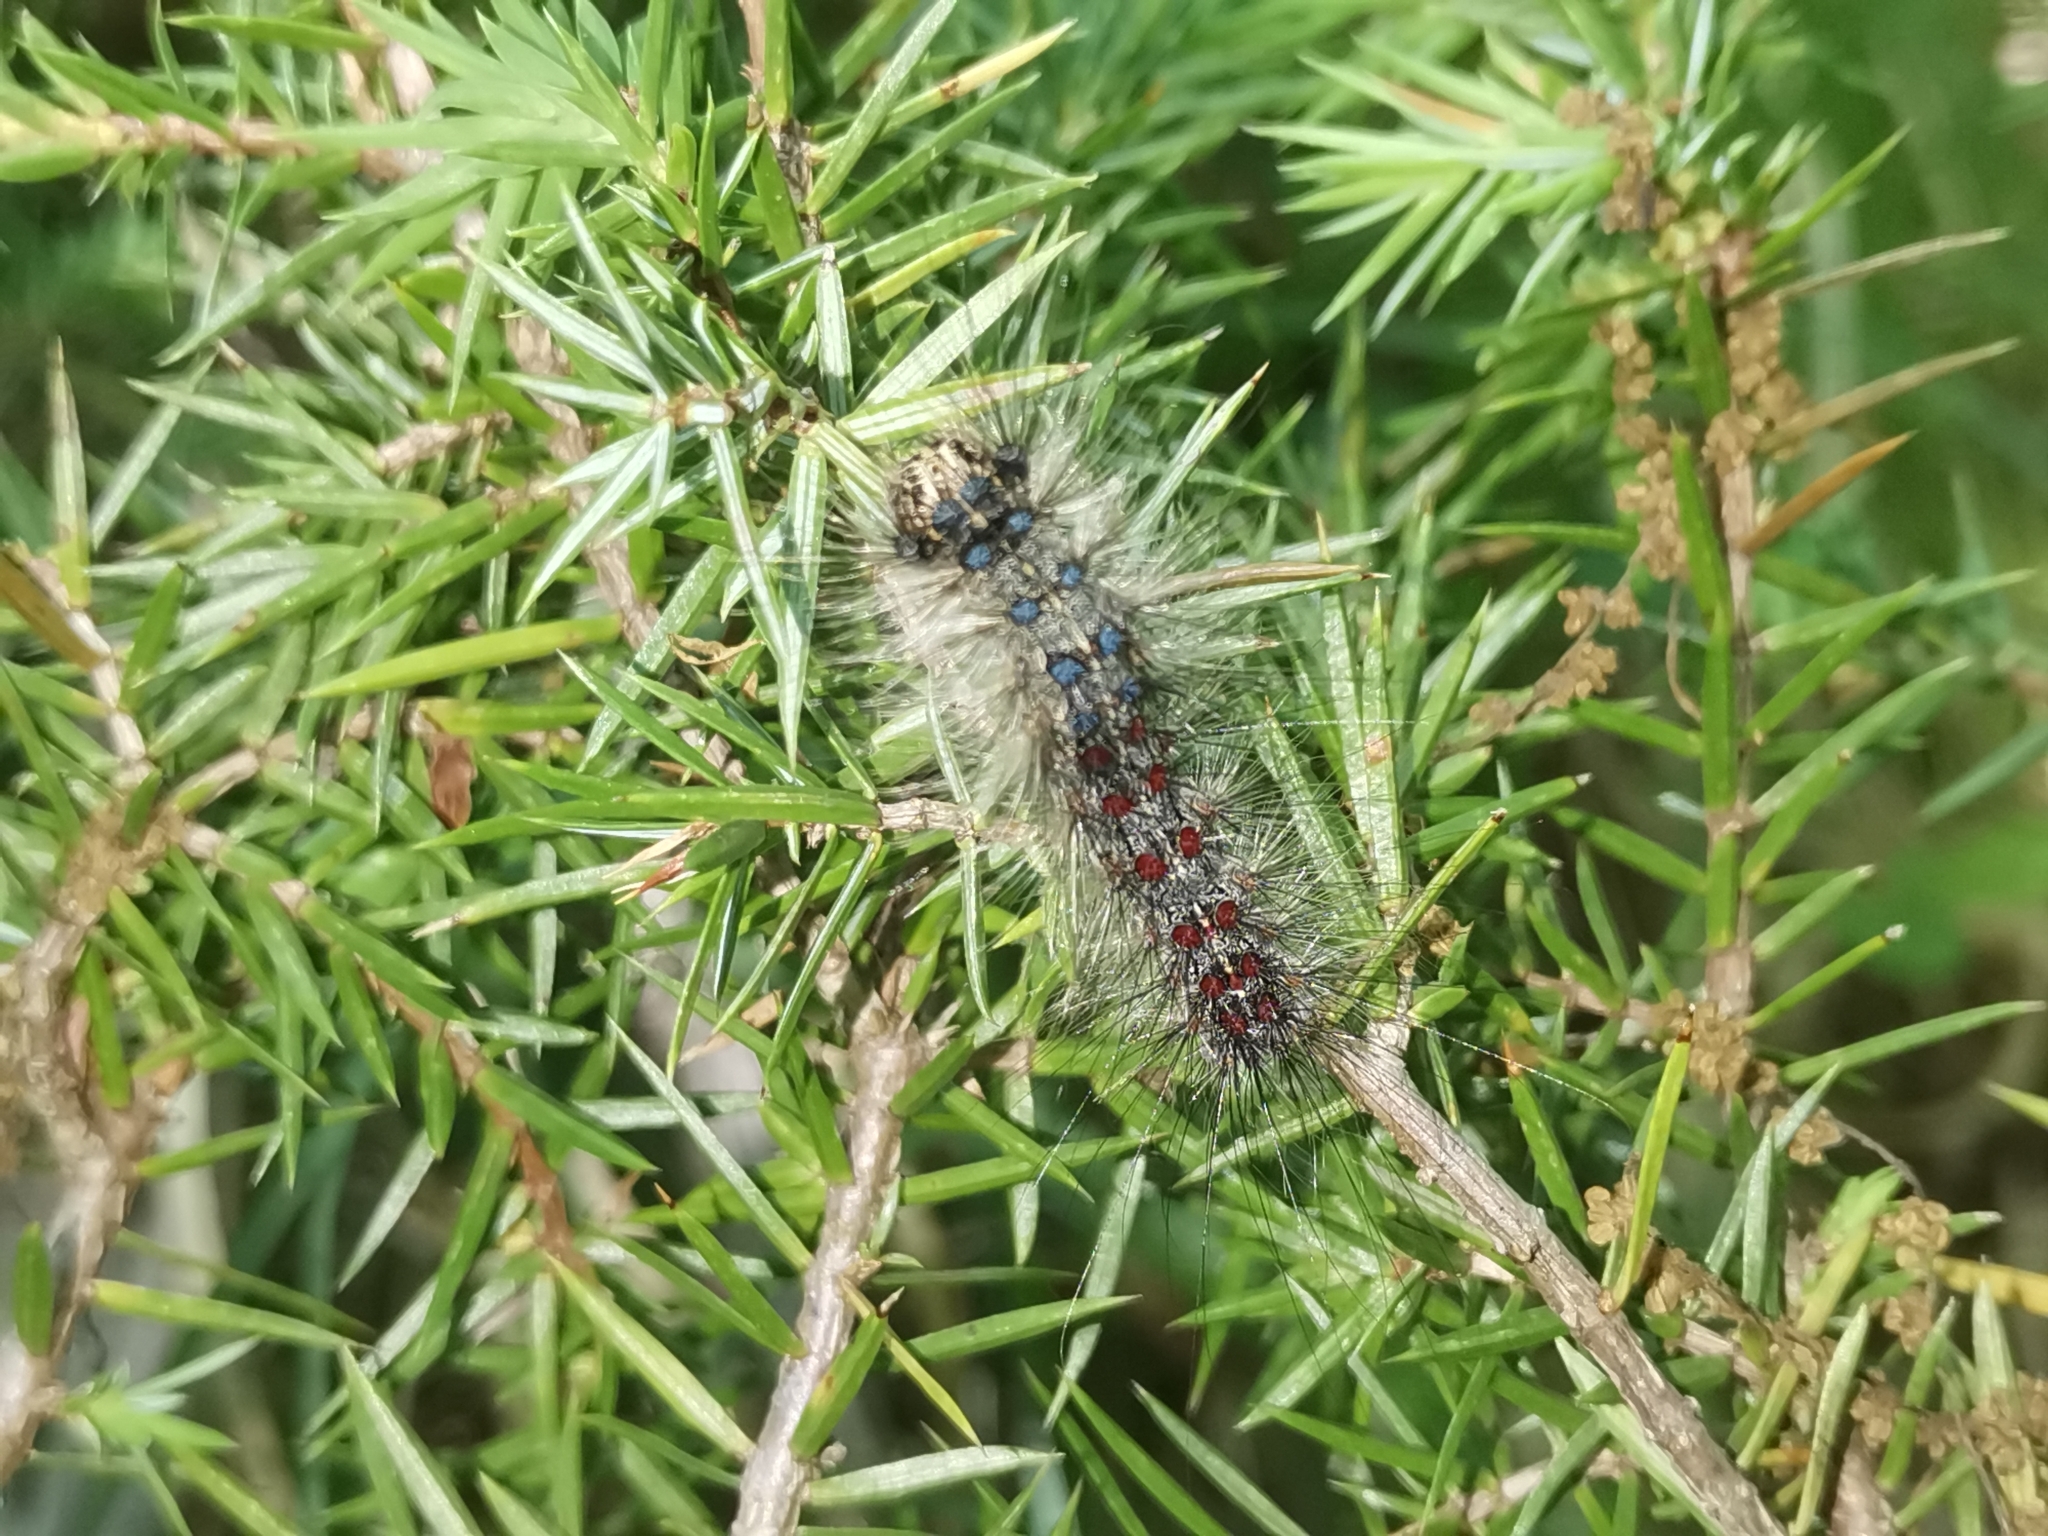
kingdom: Animalia
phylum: Arthropoda
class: Insecta
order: Lepidoptera
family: Erebidae
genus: Lymantria
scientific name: Lymantria dispar
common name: Gypsy moth
